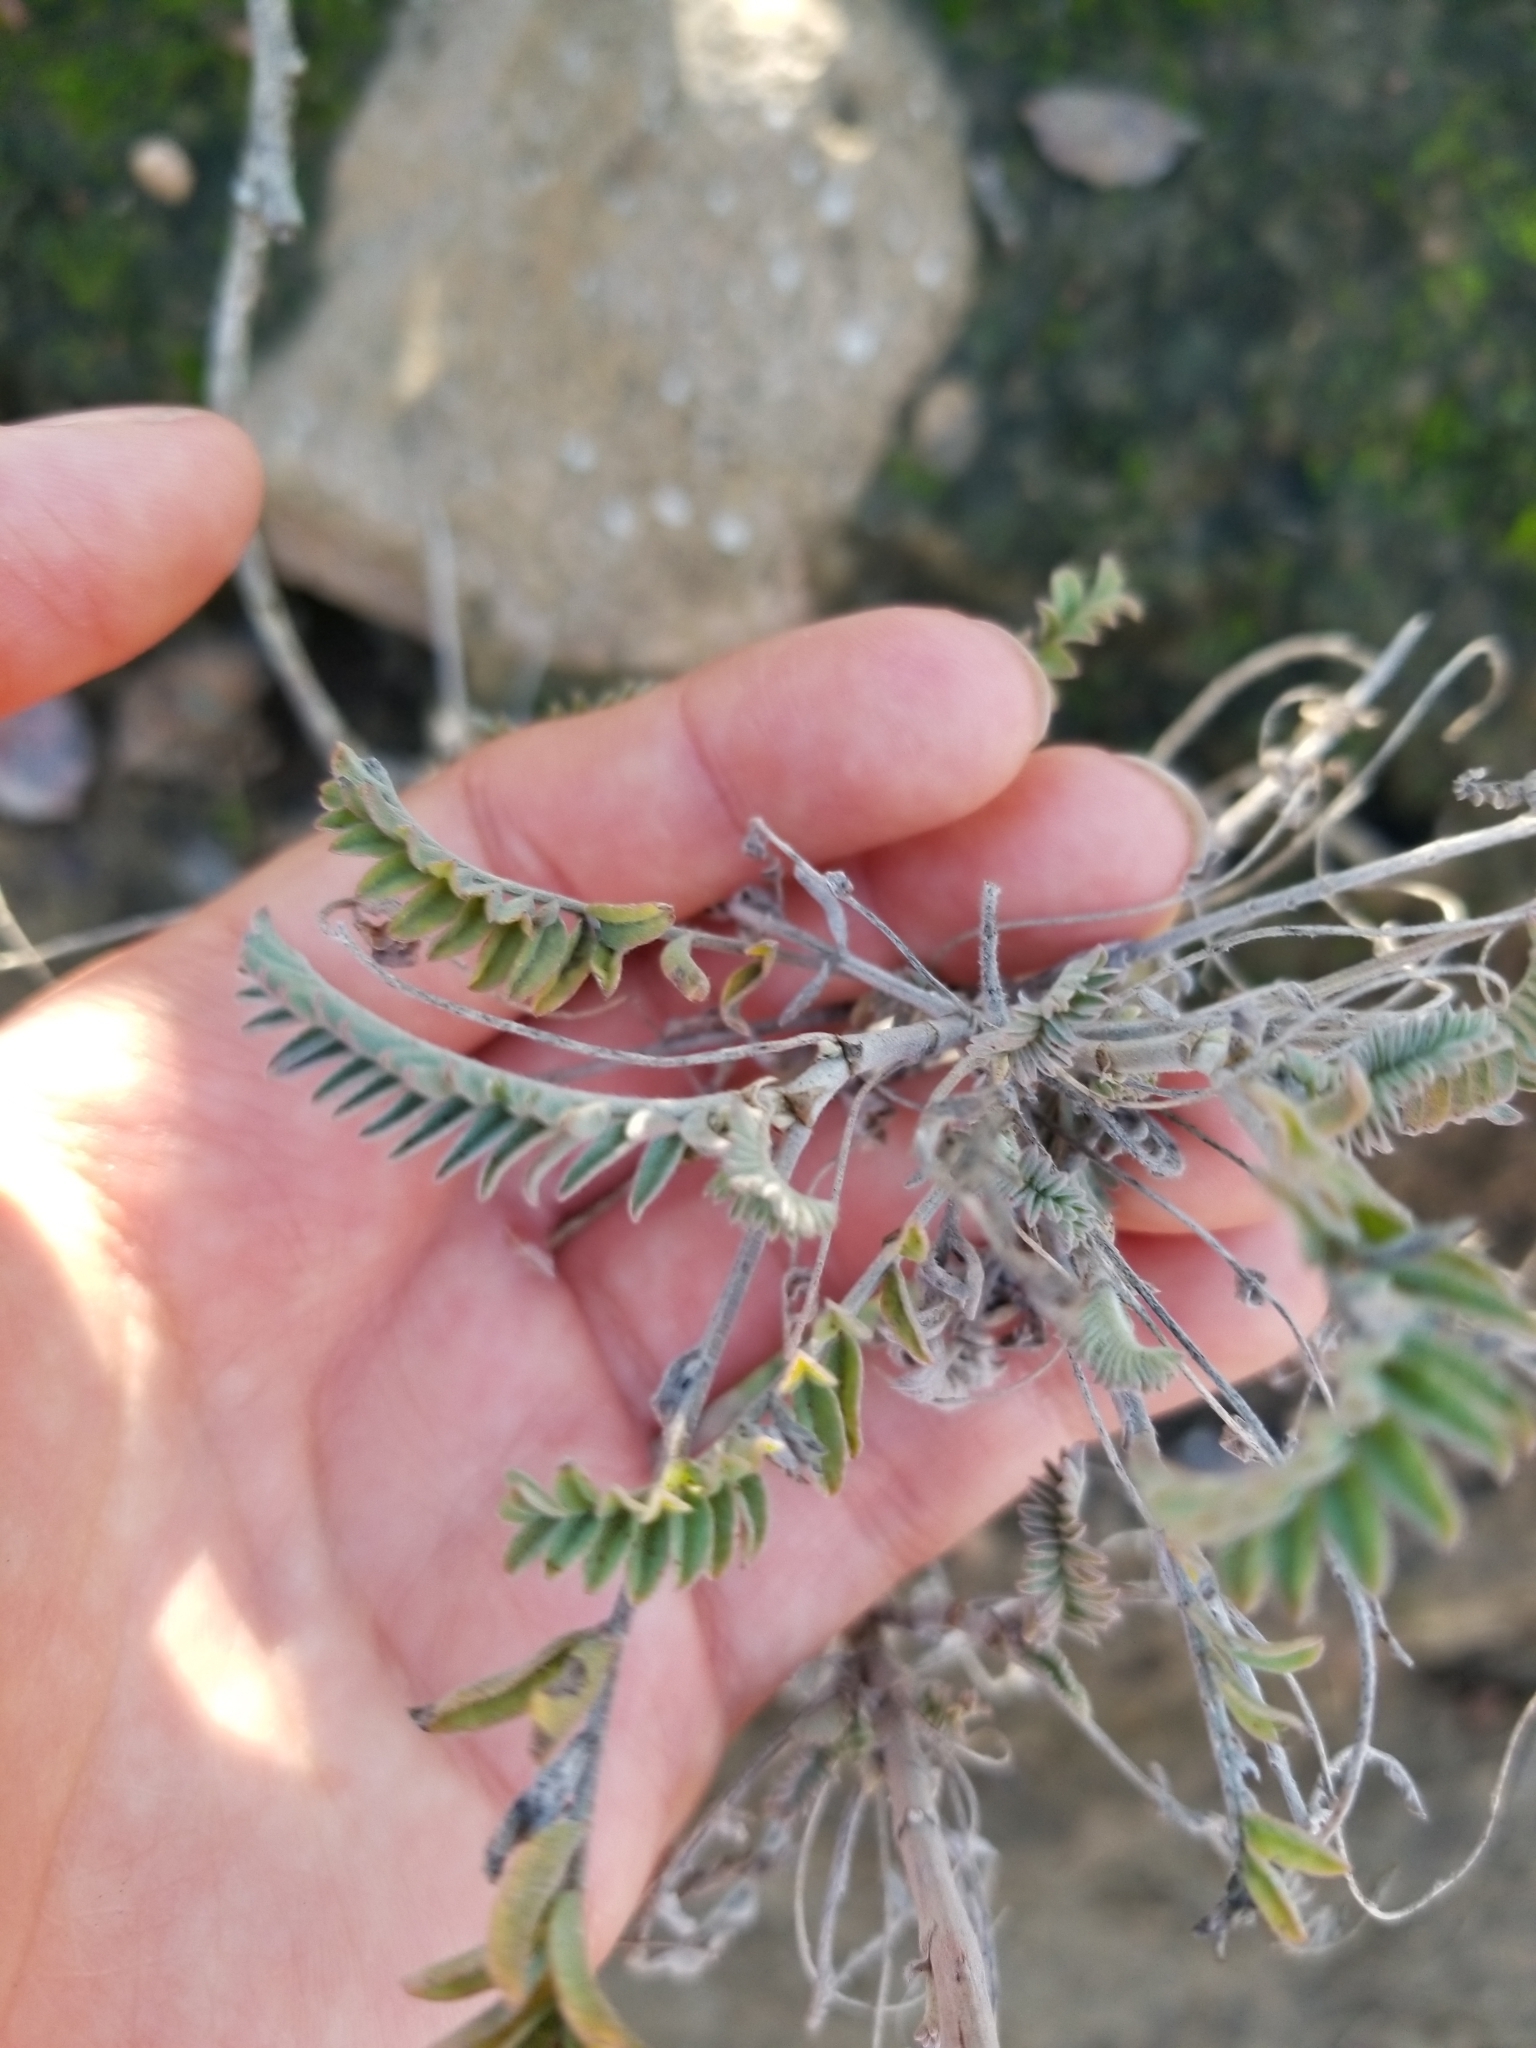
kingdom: Plantae
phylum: Tracheophyta
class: Magnoliopsida
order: Fabales
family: Fabaceae
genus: Astragalus
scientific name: Astragalus trichopodus
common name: Santa barbara milk-vetch
